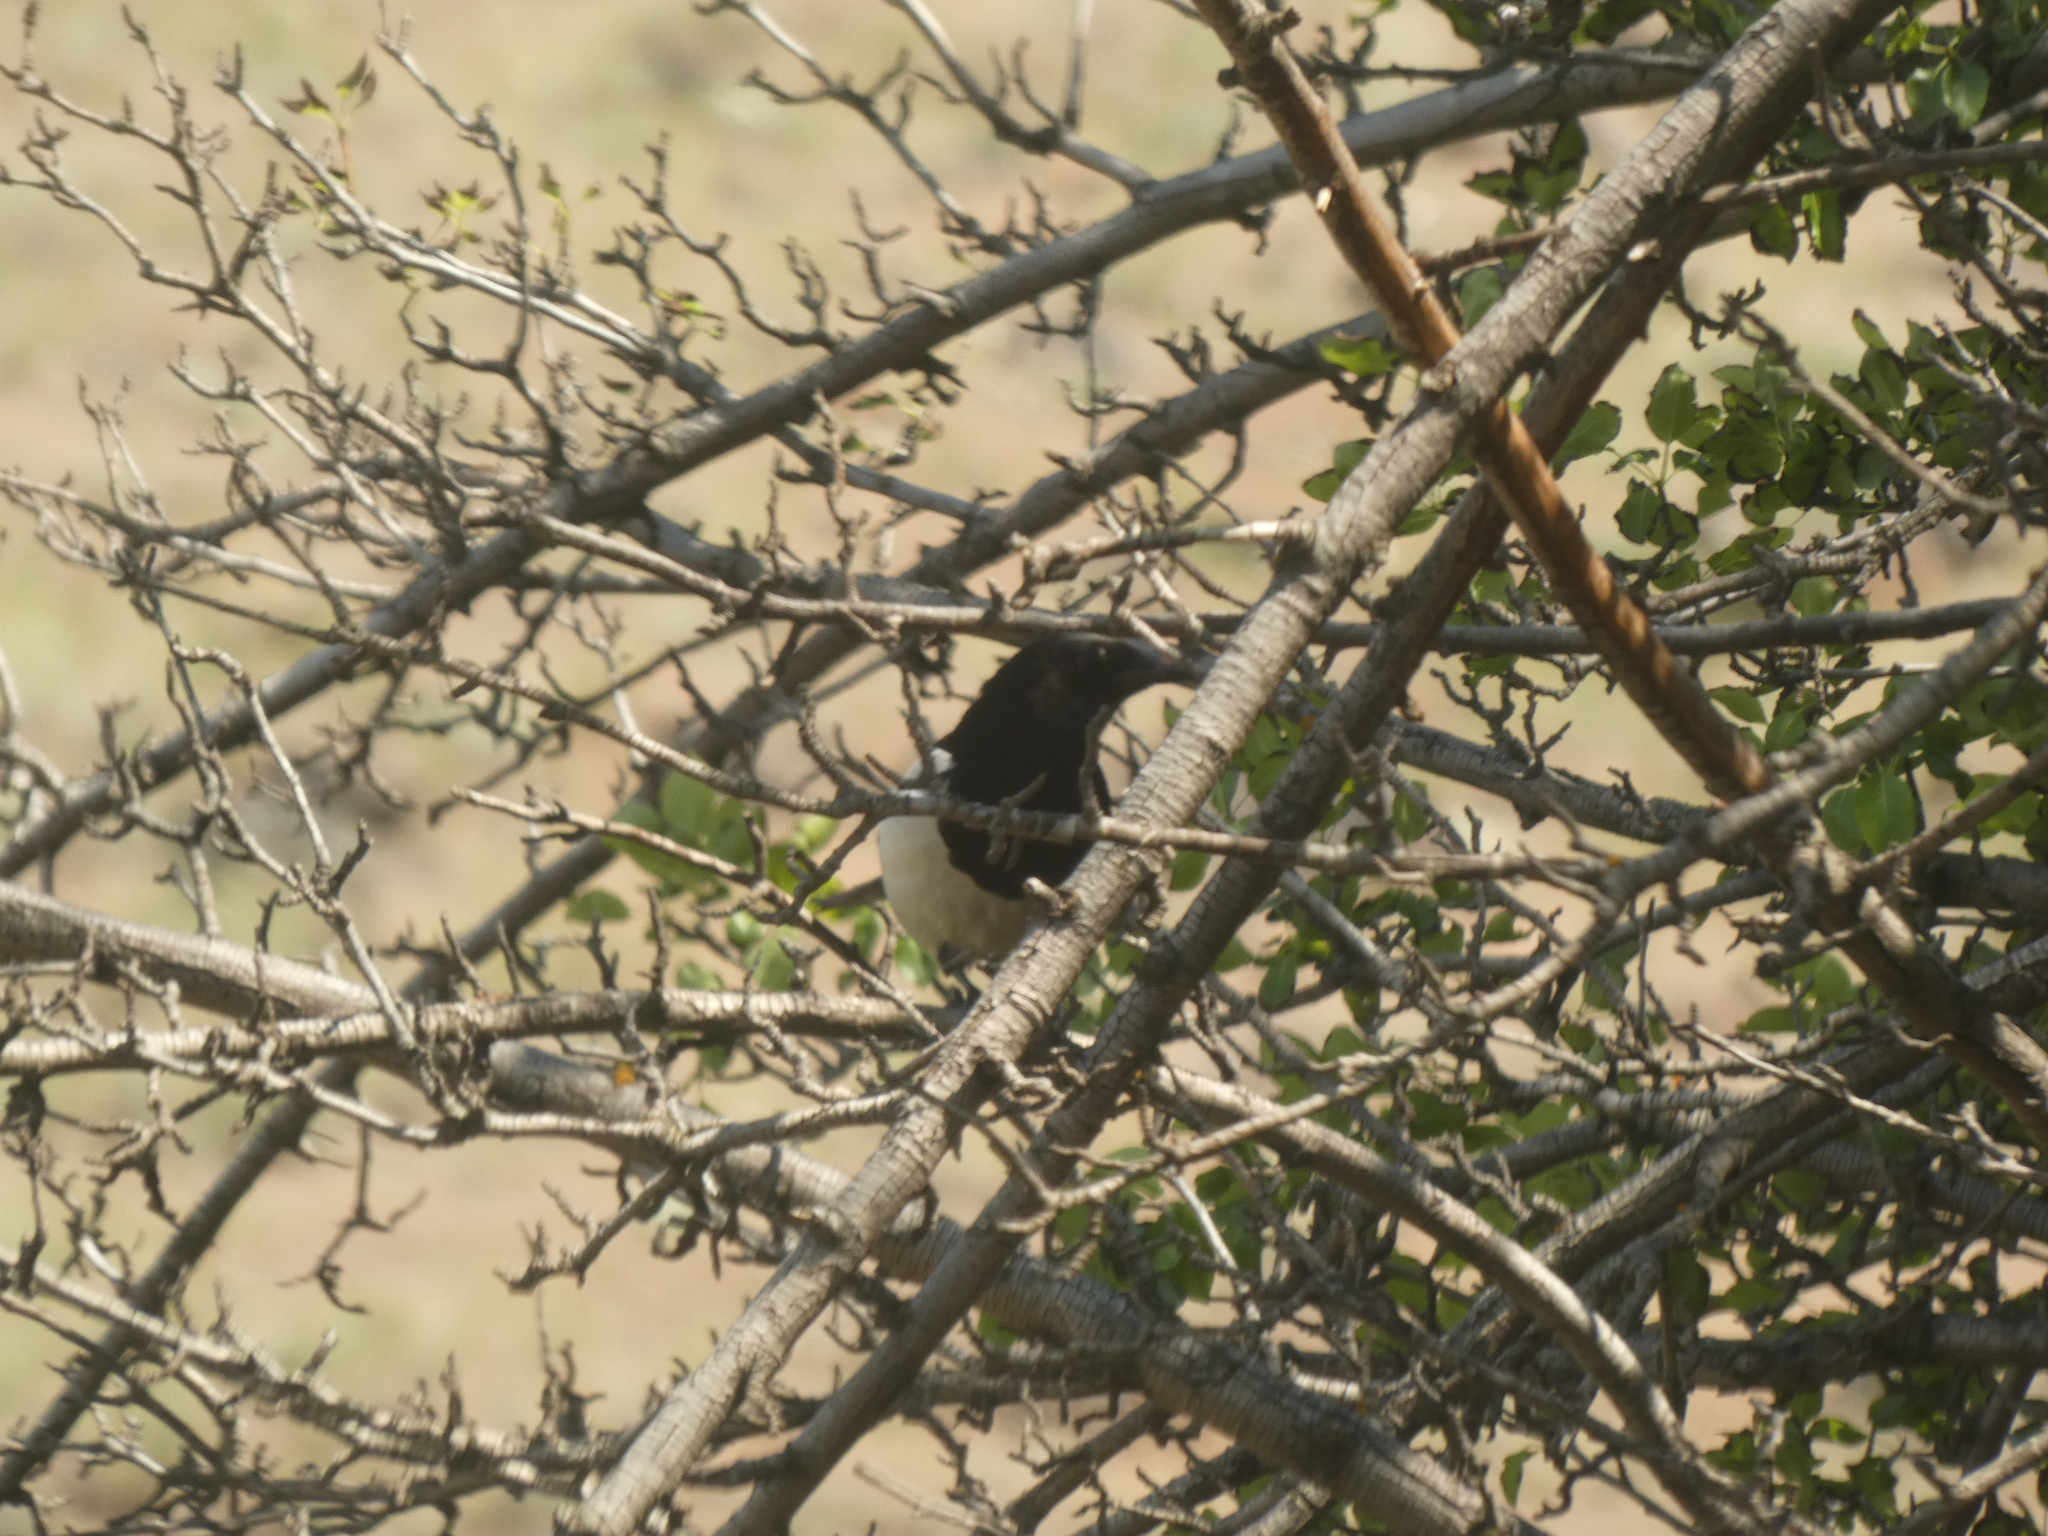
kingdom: Animalia
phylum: Chordata
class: Aves
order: Passeriformes
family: Corvidae
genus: Pica
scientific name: Pica hudsonia
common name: Black-billed magpie
